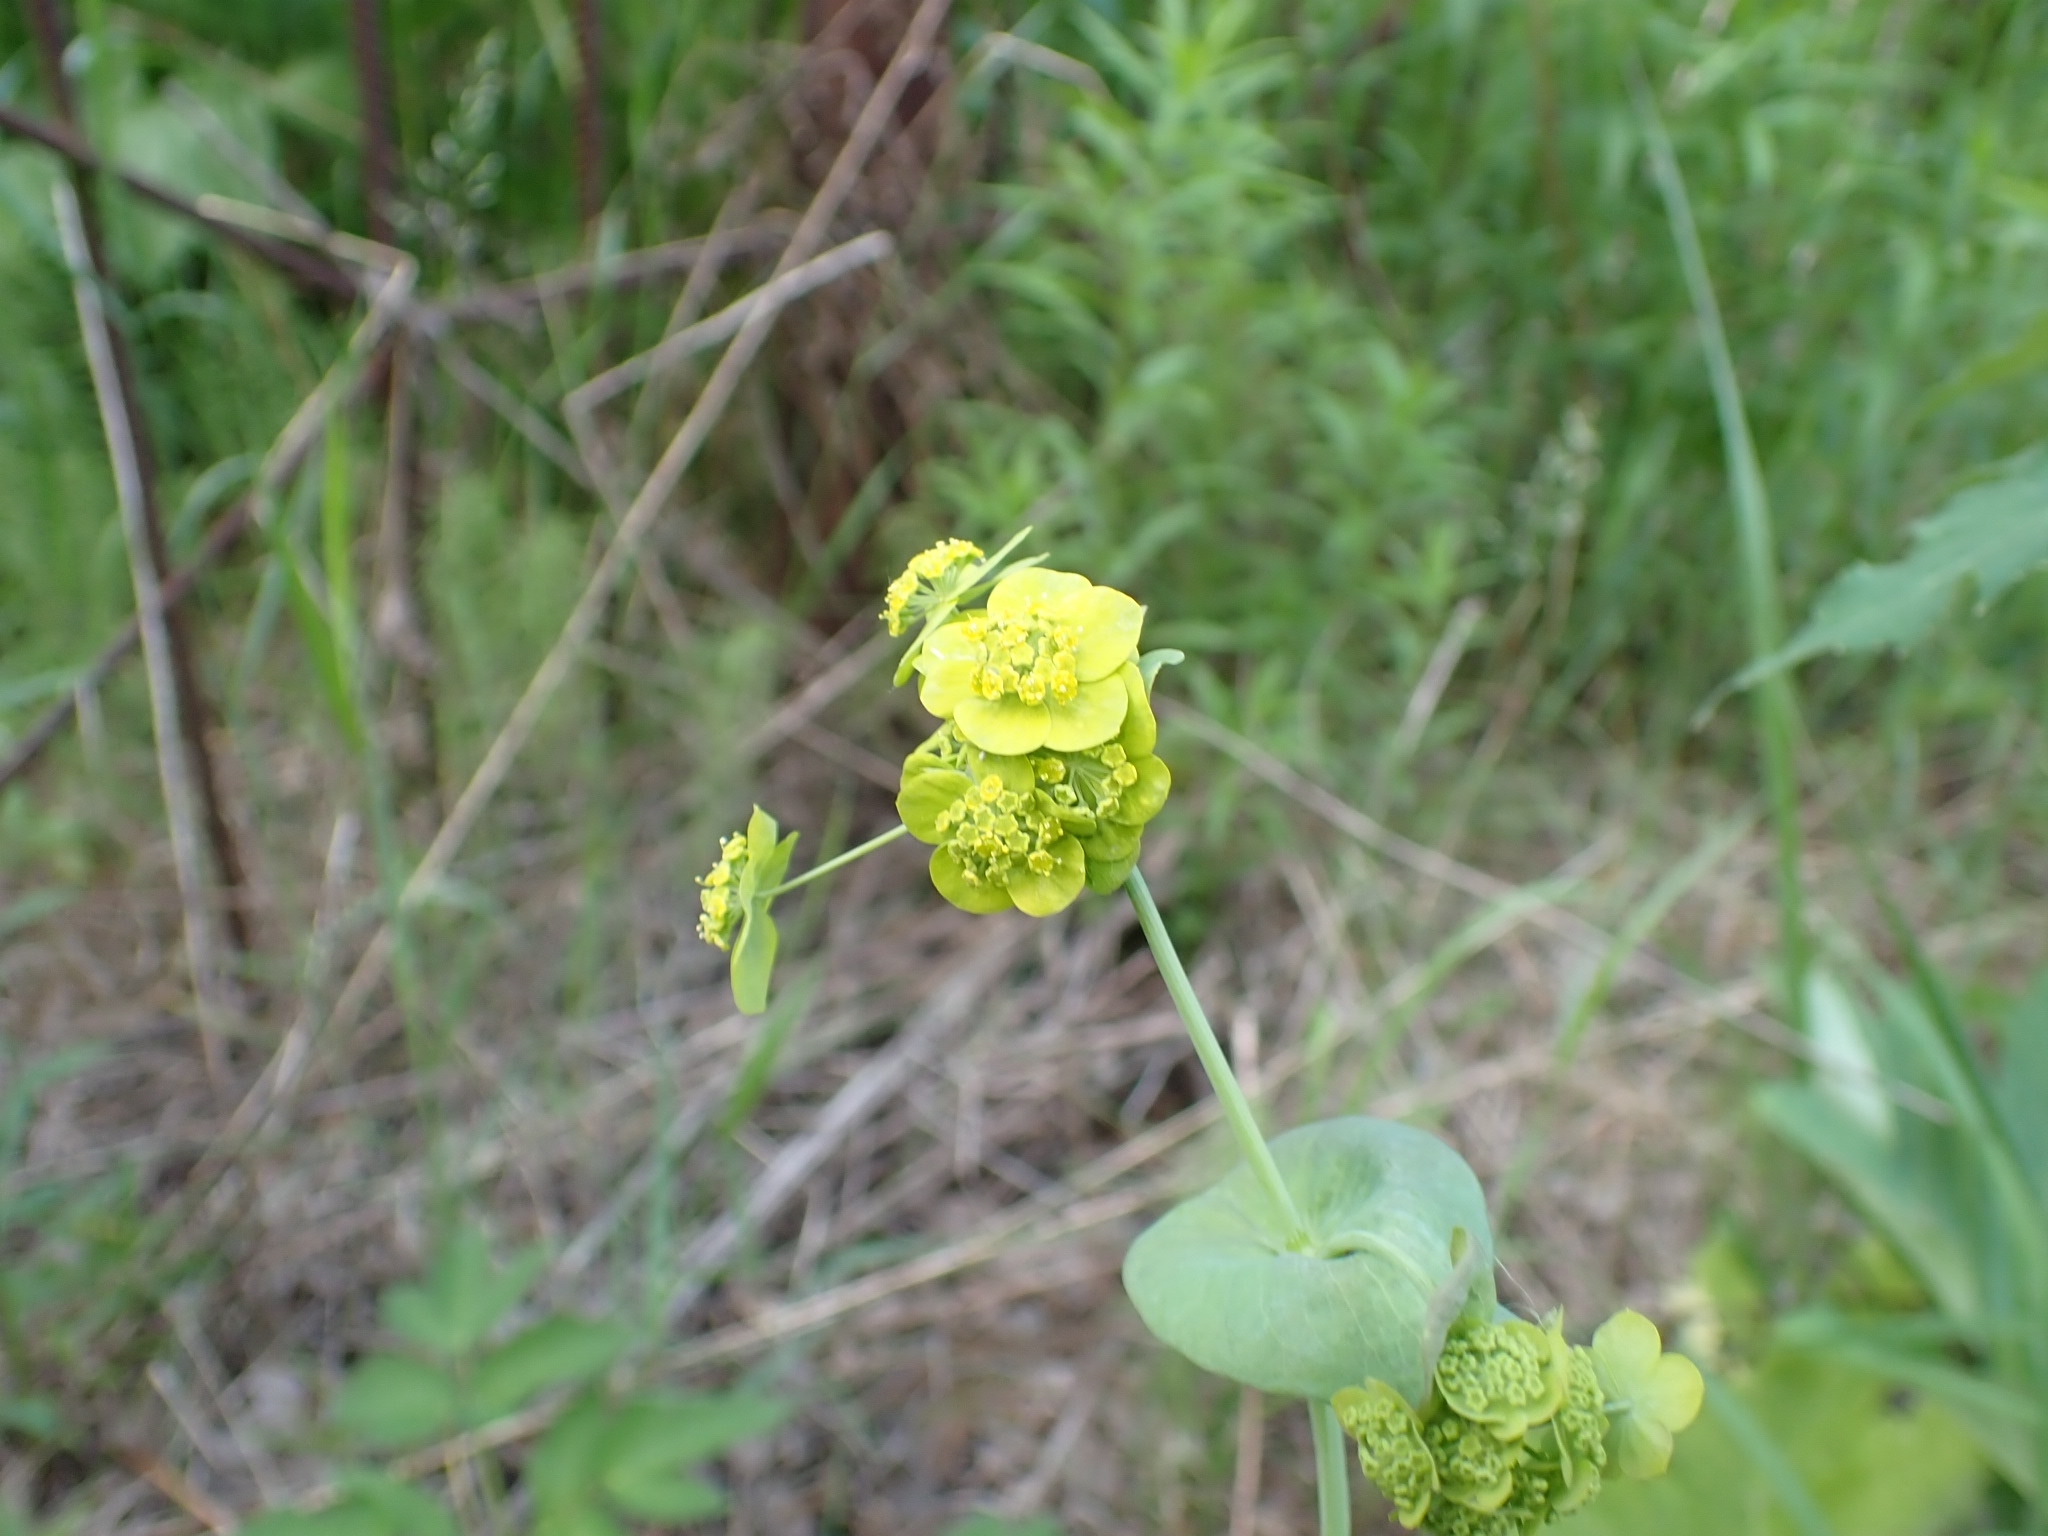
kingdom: Plantae
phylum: Tracheophyta
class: Magnoliopsida
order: Apiales
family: Apiaceae
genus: Bupleurum
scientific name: Bupleurum aureum
